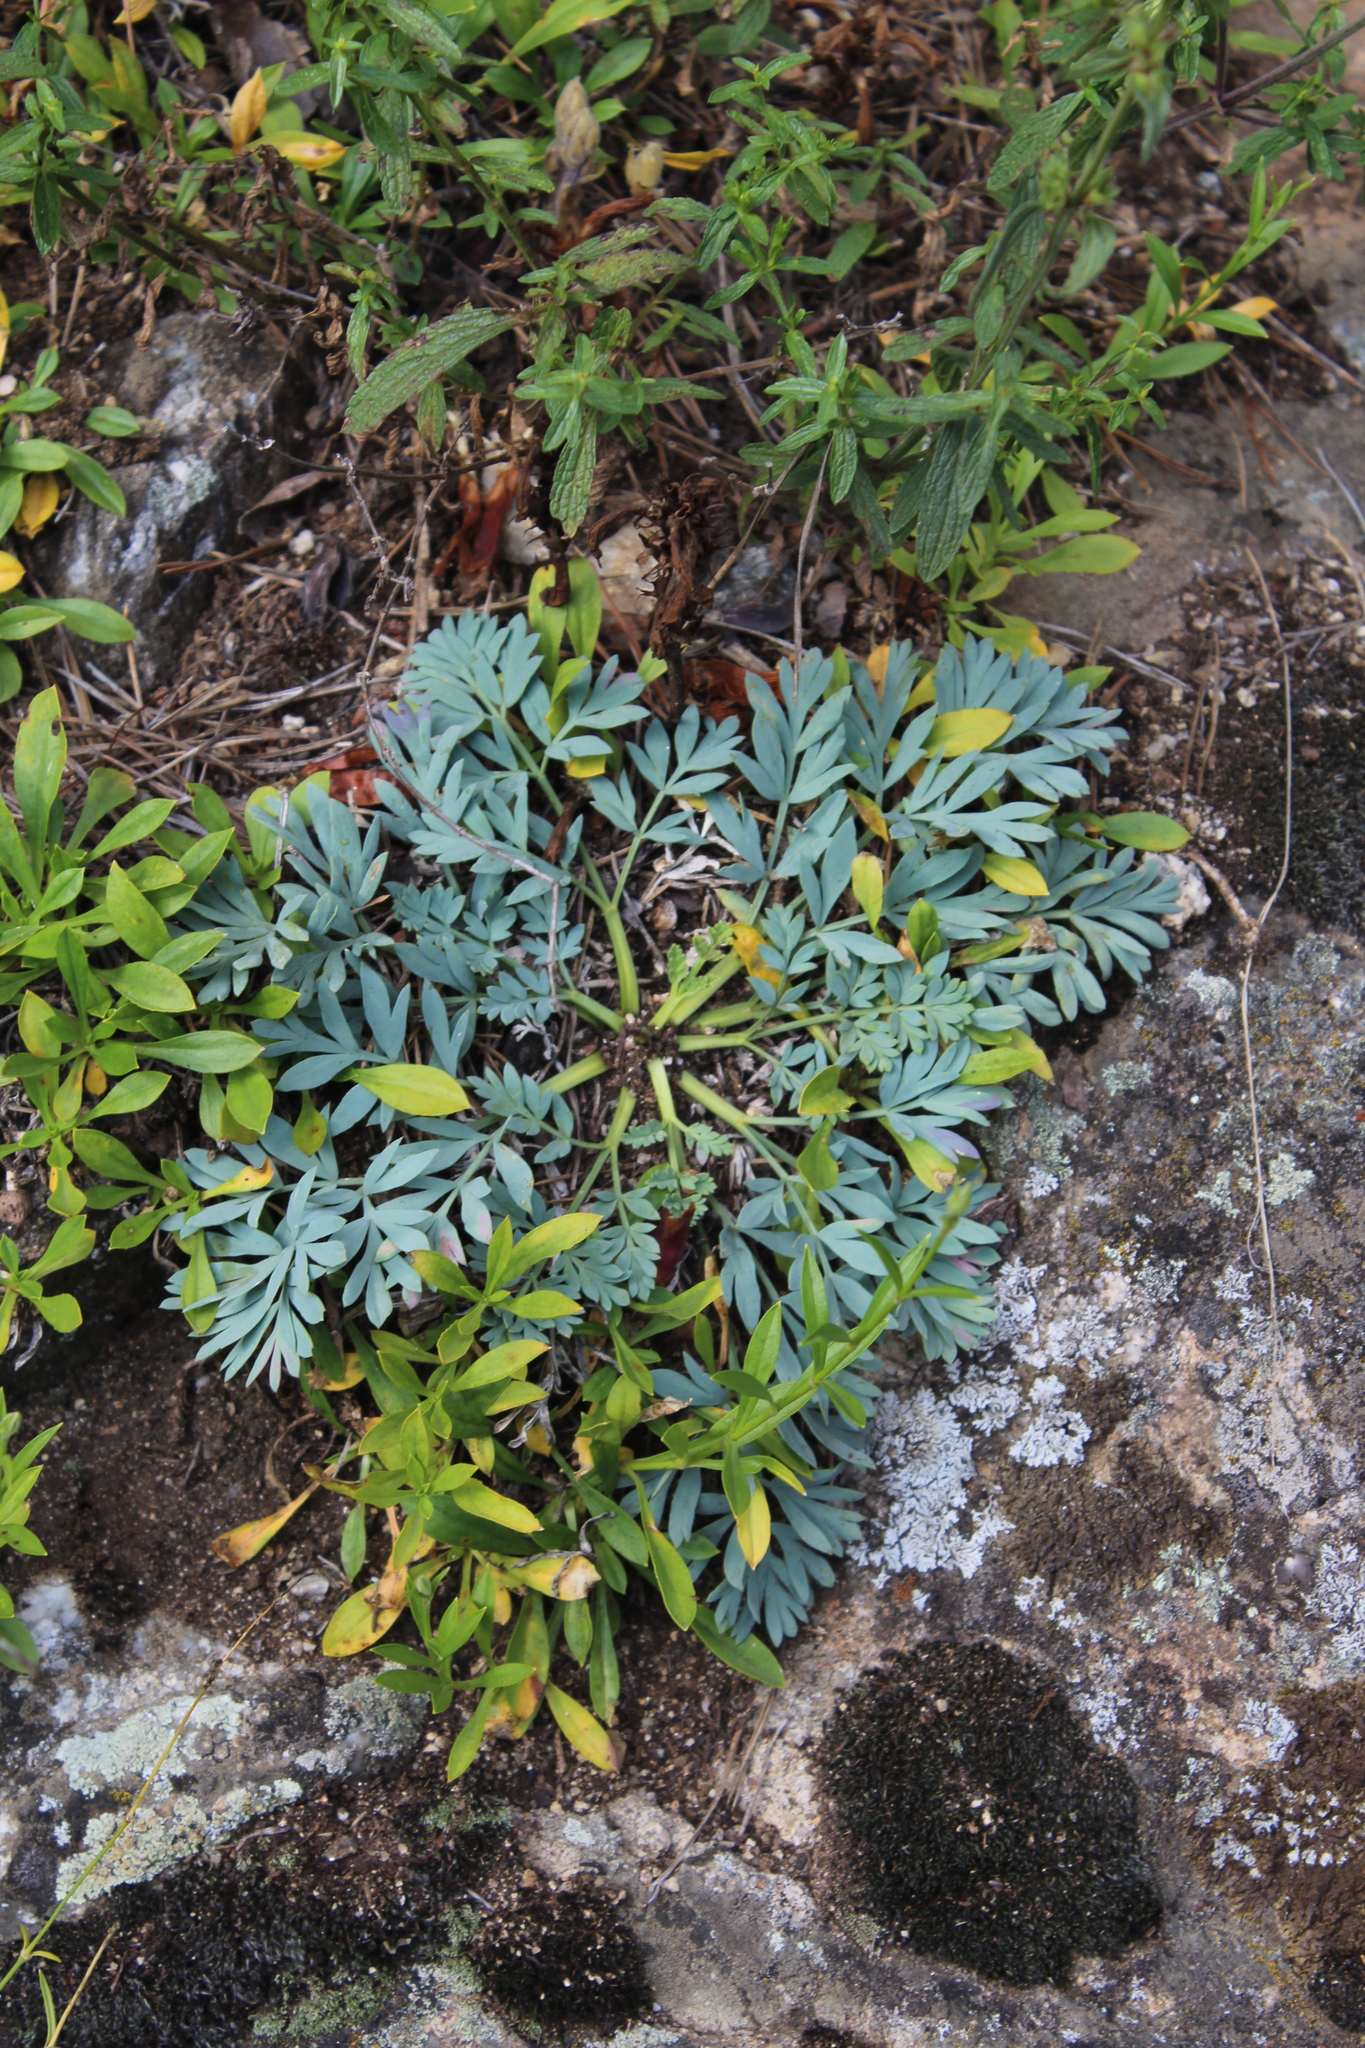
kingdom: Plantae
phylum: Tracheophyta
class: Magnoliopsida
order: Apiales
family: Apiaceae
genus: Hippomarathrum
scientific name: Hippomarathrum petraeum
